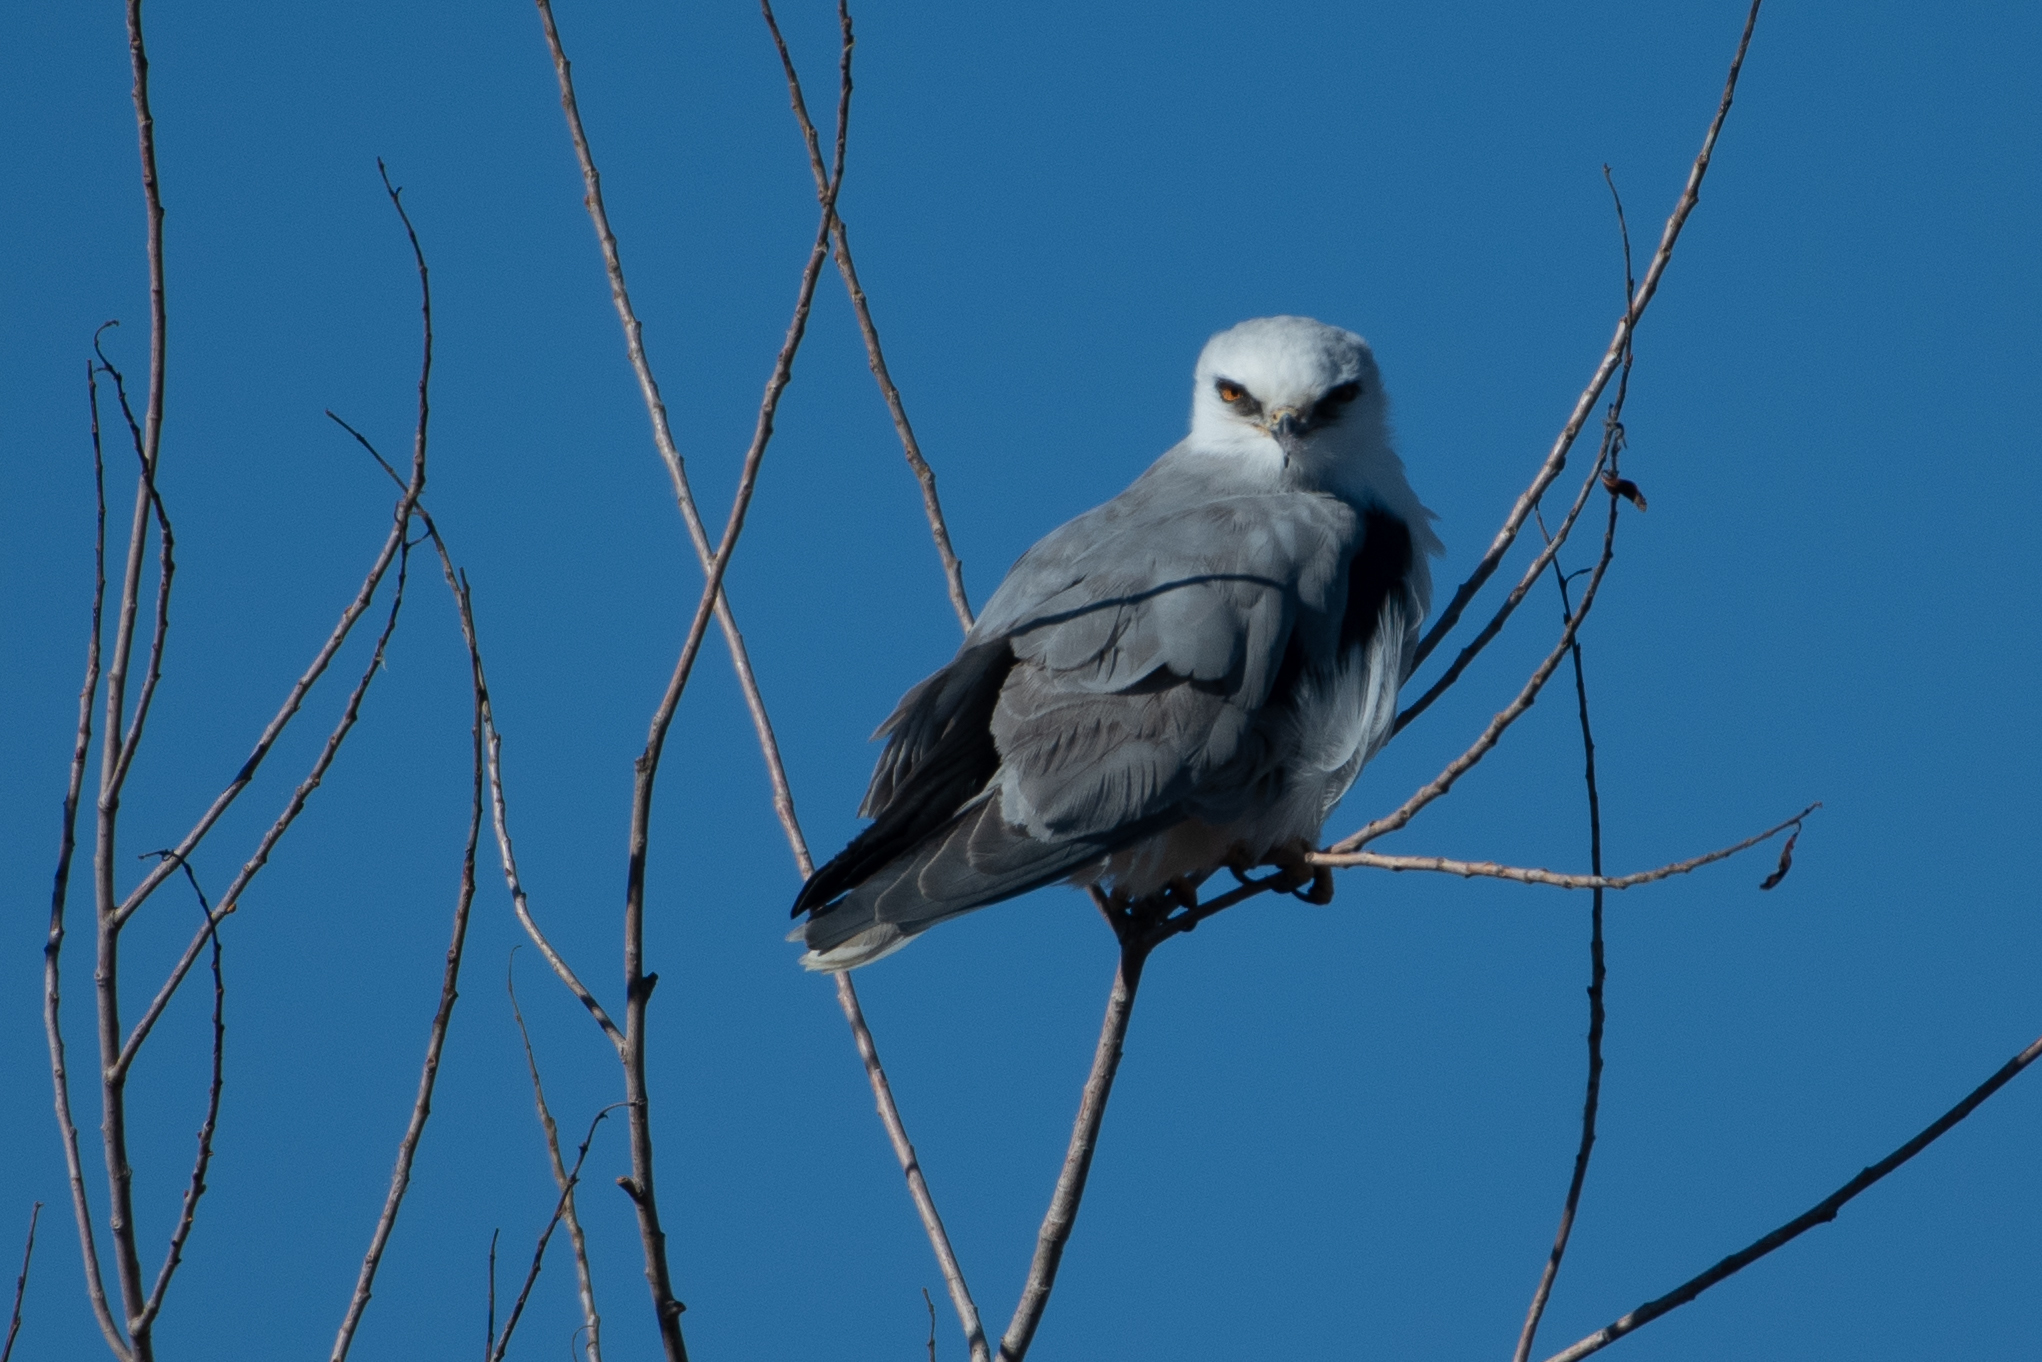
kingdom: Animalia
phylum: Chordata
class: Aves
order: Accipitriformes
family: Accipitridae
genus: Elanus
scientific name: Elanus leucurus
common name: White-tailed kite
